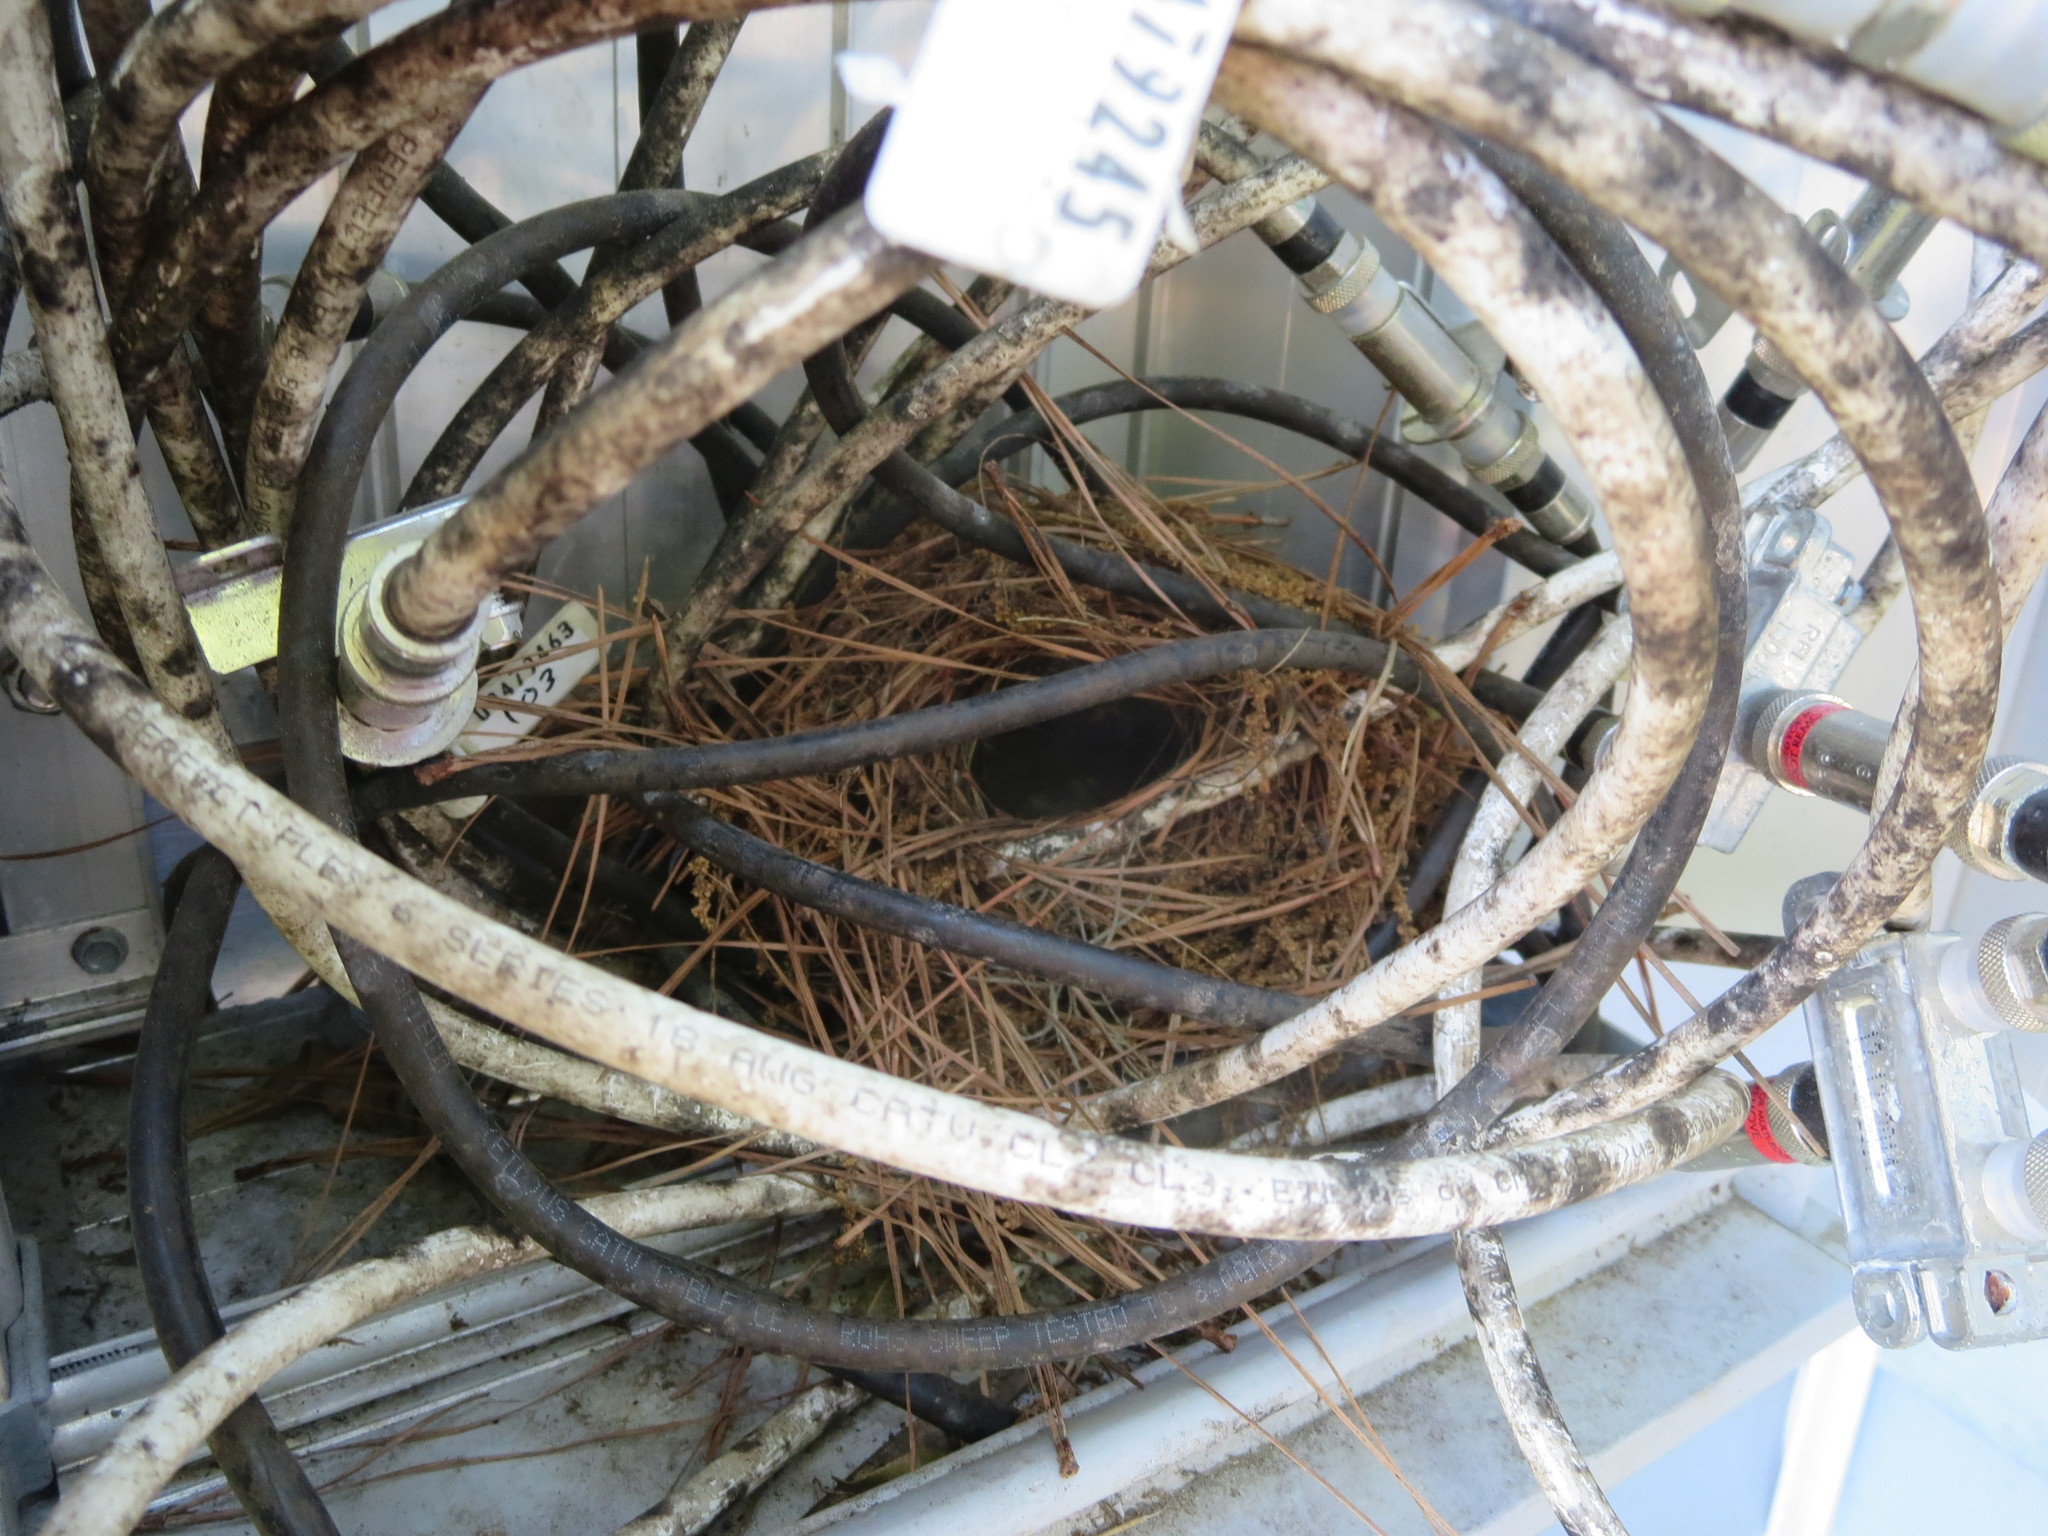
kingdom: Animalia
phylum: Chordata
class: Aves
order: Passeriformes
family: Troglodytidae
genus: Thryothorus
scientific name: Thryothorus ludovicianus
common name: Carolina wren
